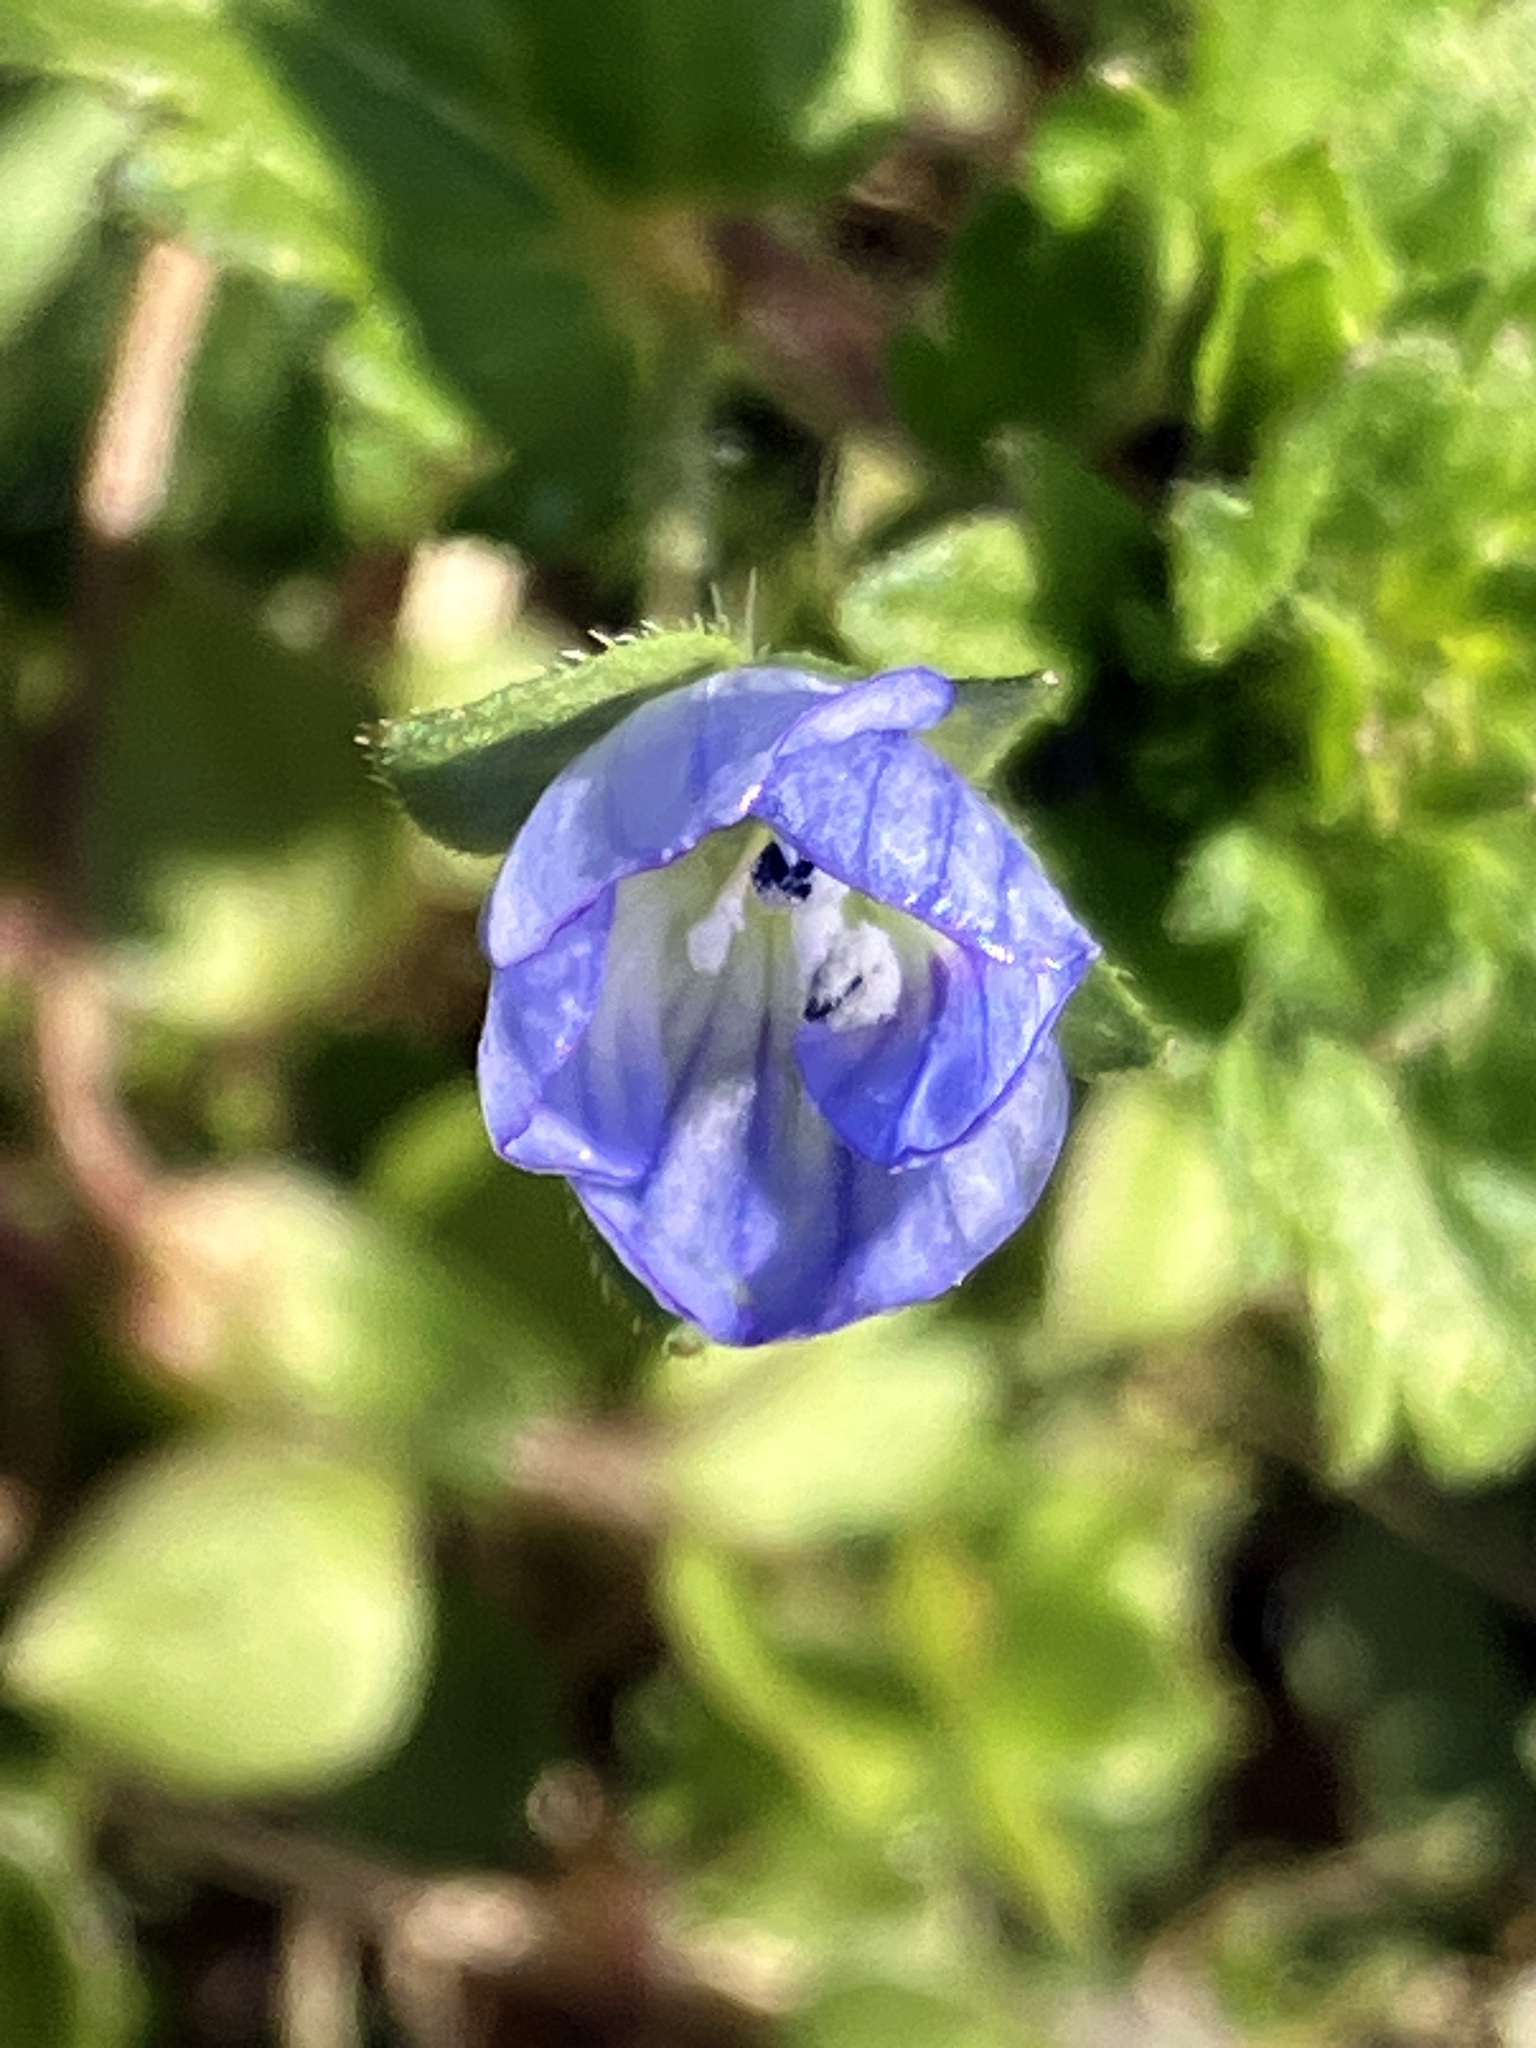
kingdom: Plantae
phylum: Tracheophyta
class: Magnoliopsida
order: Lamiales
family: Plantaginaceae
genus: Veronica
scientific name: Veronica persica
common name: Common field-speedwell
